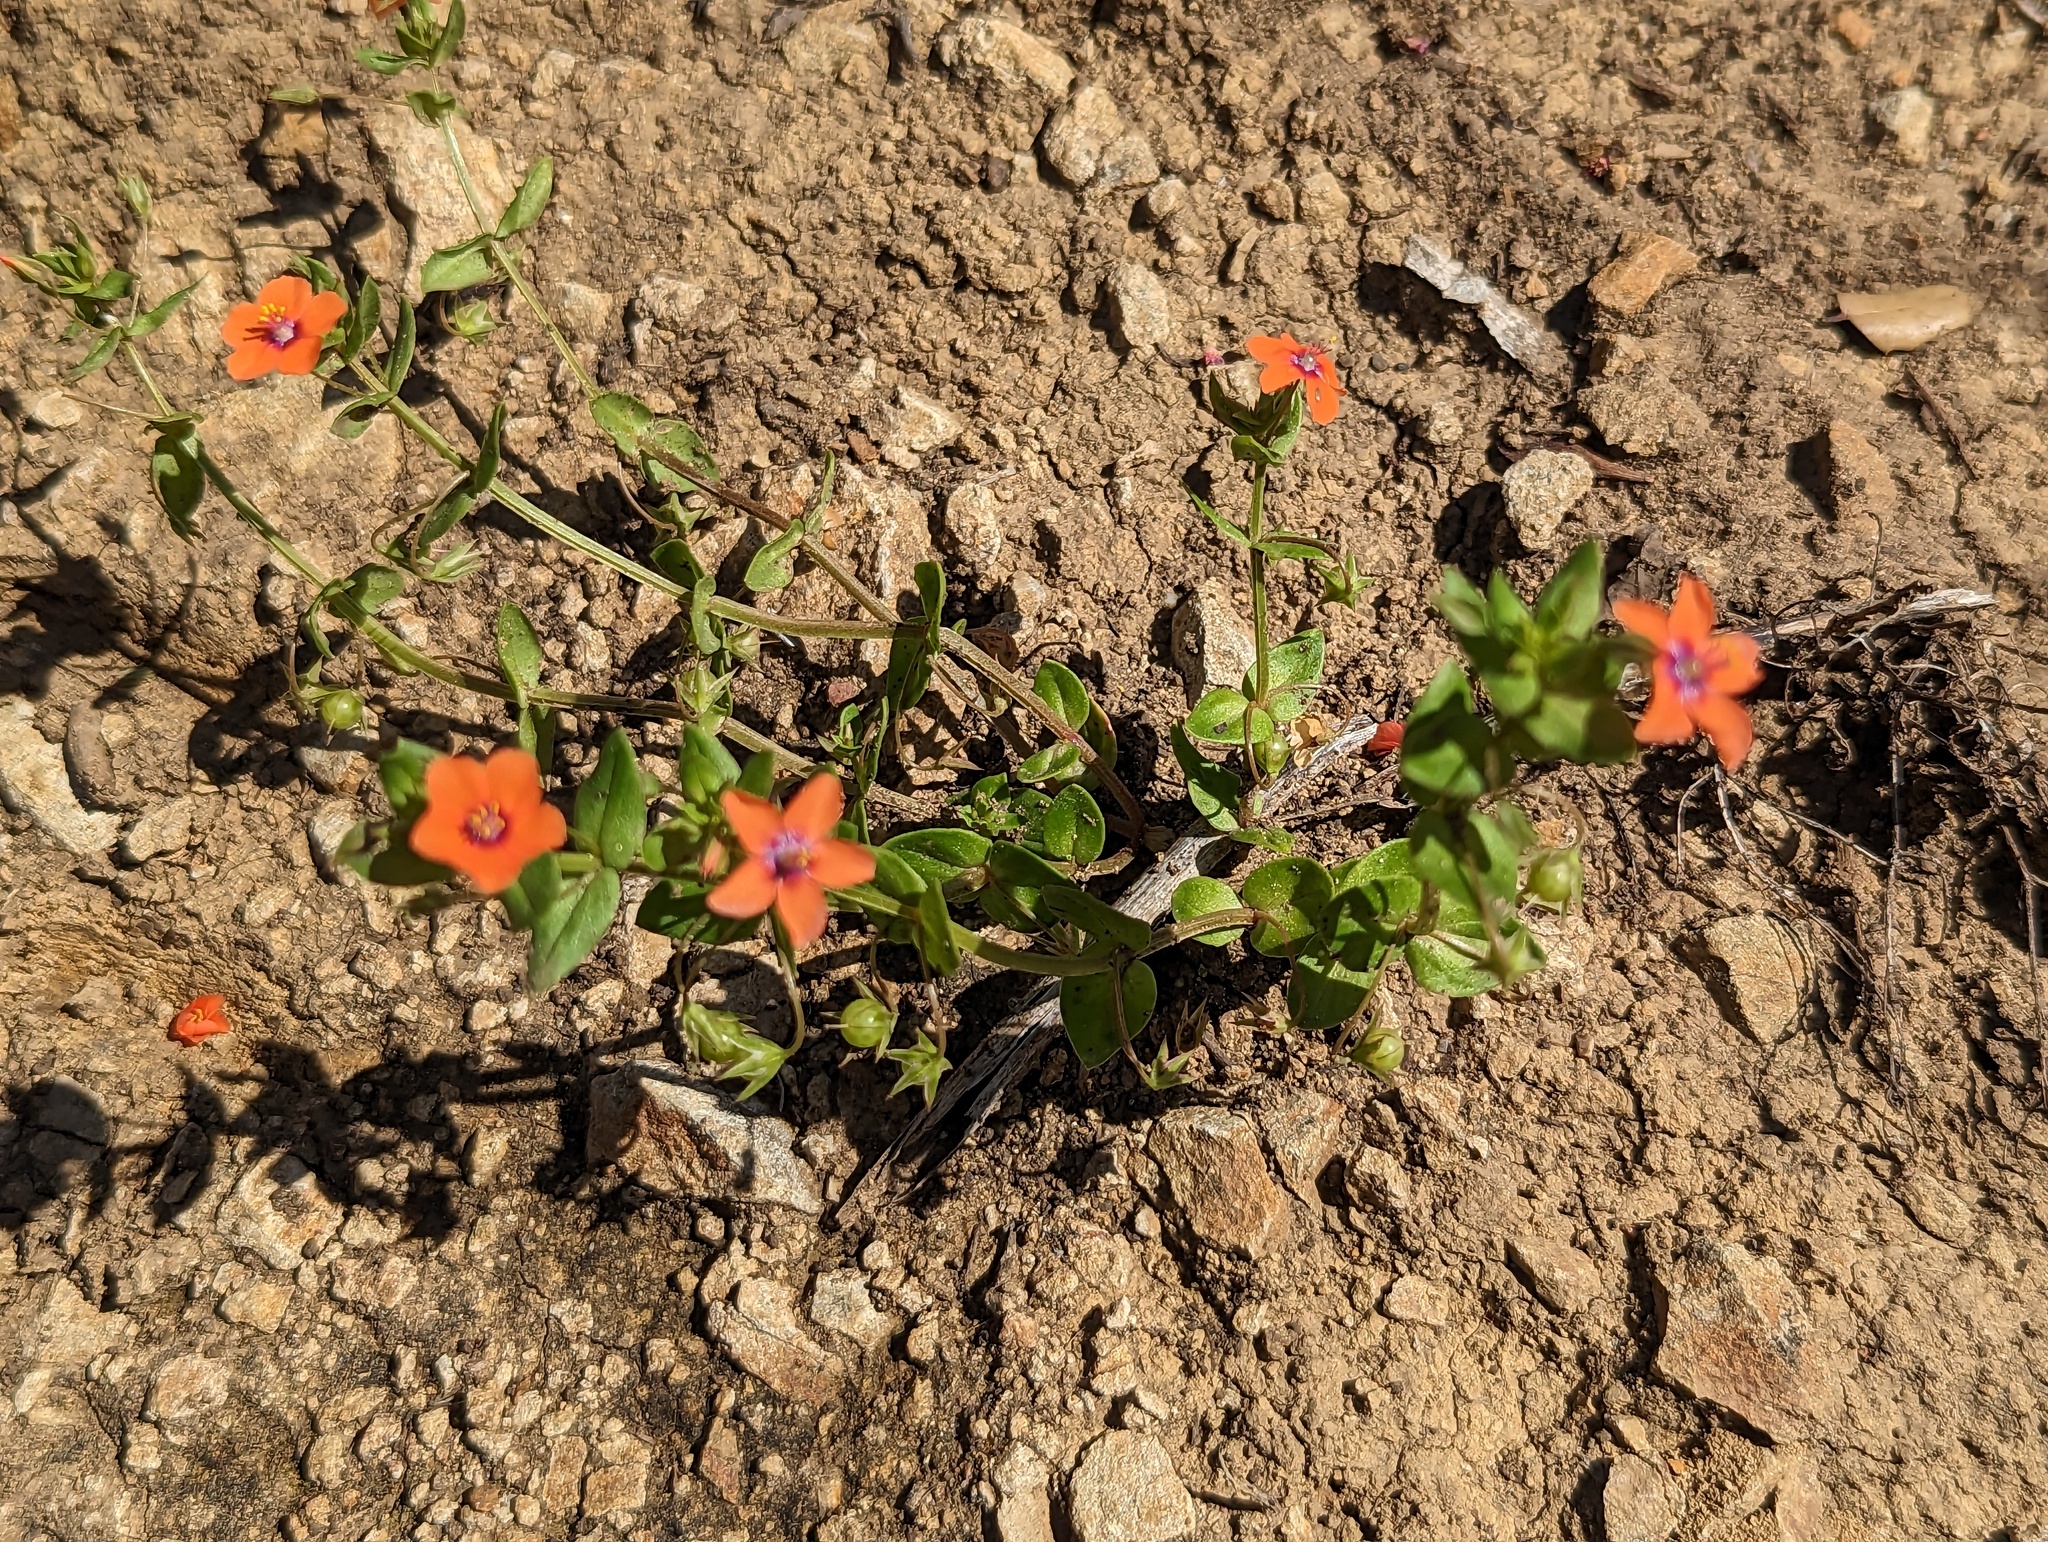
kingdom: Plantae
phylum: Tracheophyta
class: Magnoliopsida
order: Ericales
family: Primulaceae
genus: Lysimachia
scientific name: Lysimachia arvensis
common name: Scarlet pimpernel
